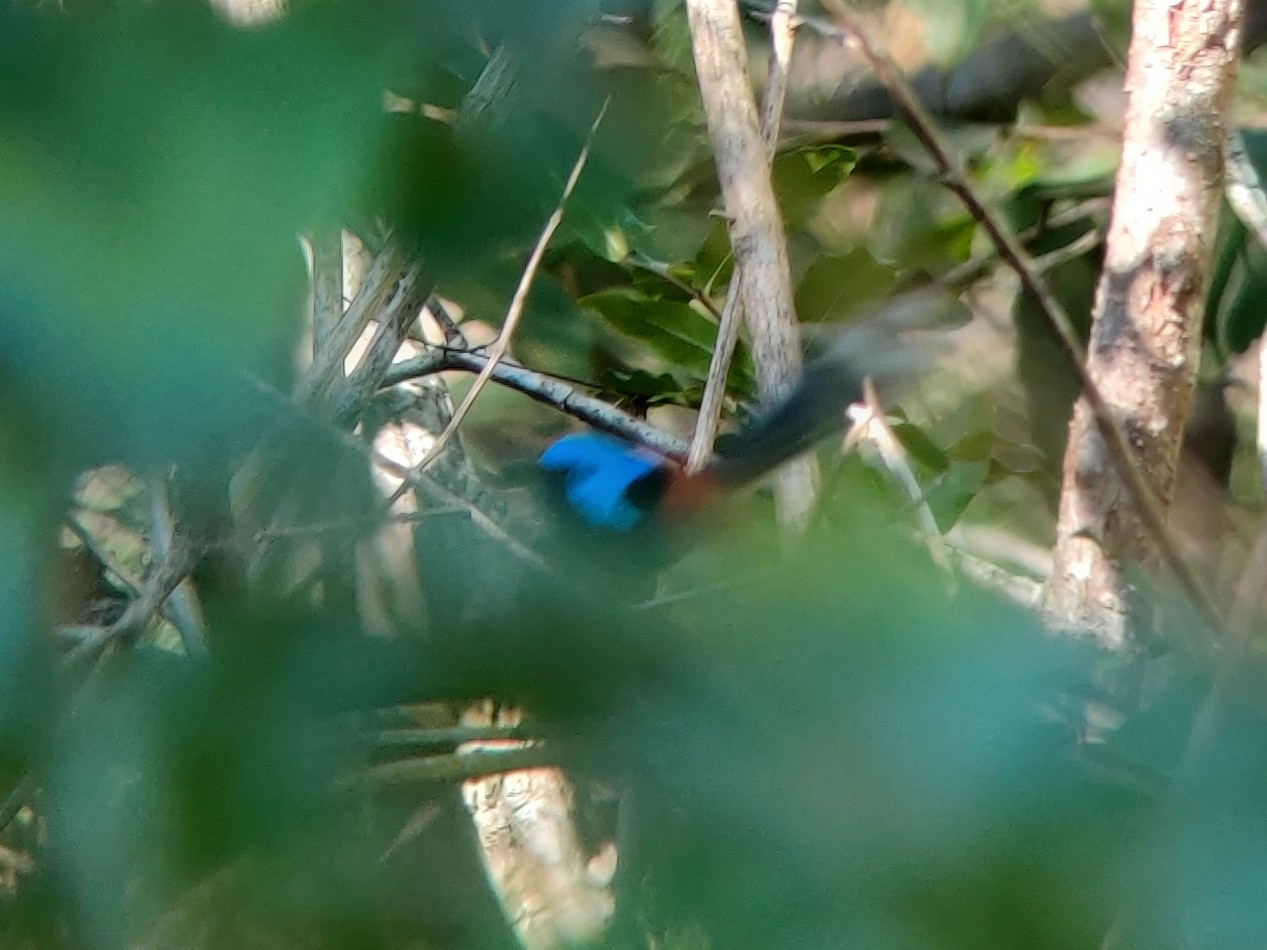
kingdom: Animalia
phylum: Chordata
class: Aves
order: Passeriformes
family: Maluridae
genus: Malurus
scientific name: Malurus lamberti
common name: Variegated fairywren
